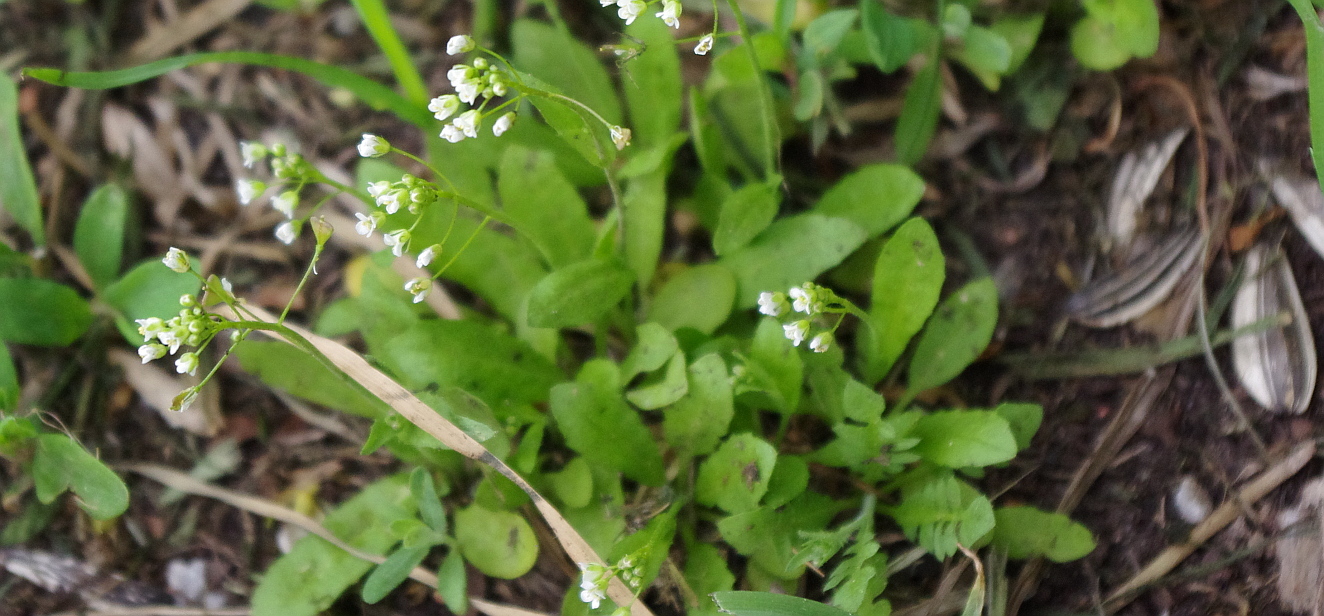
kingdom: Plantae
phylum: Tracheophyta
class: Magnoliopsida
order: Brassicales
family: Brassicaceae
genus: Capsella
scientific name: Capsella bursa-pastoris
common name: Shepherd's purse
